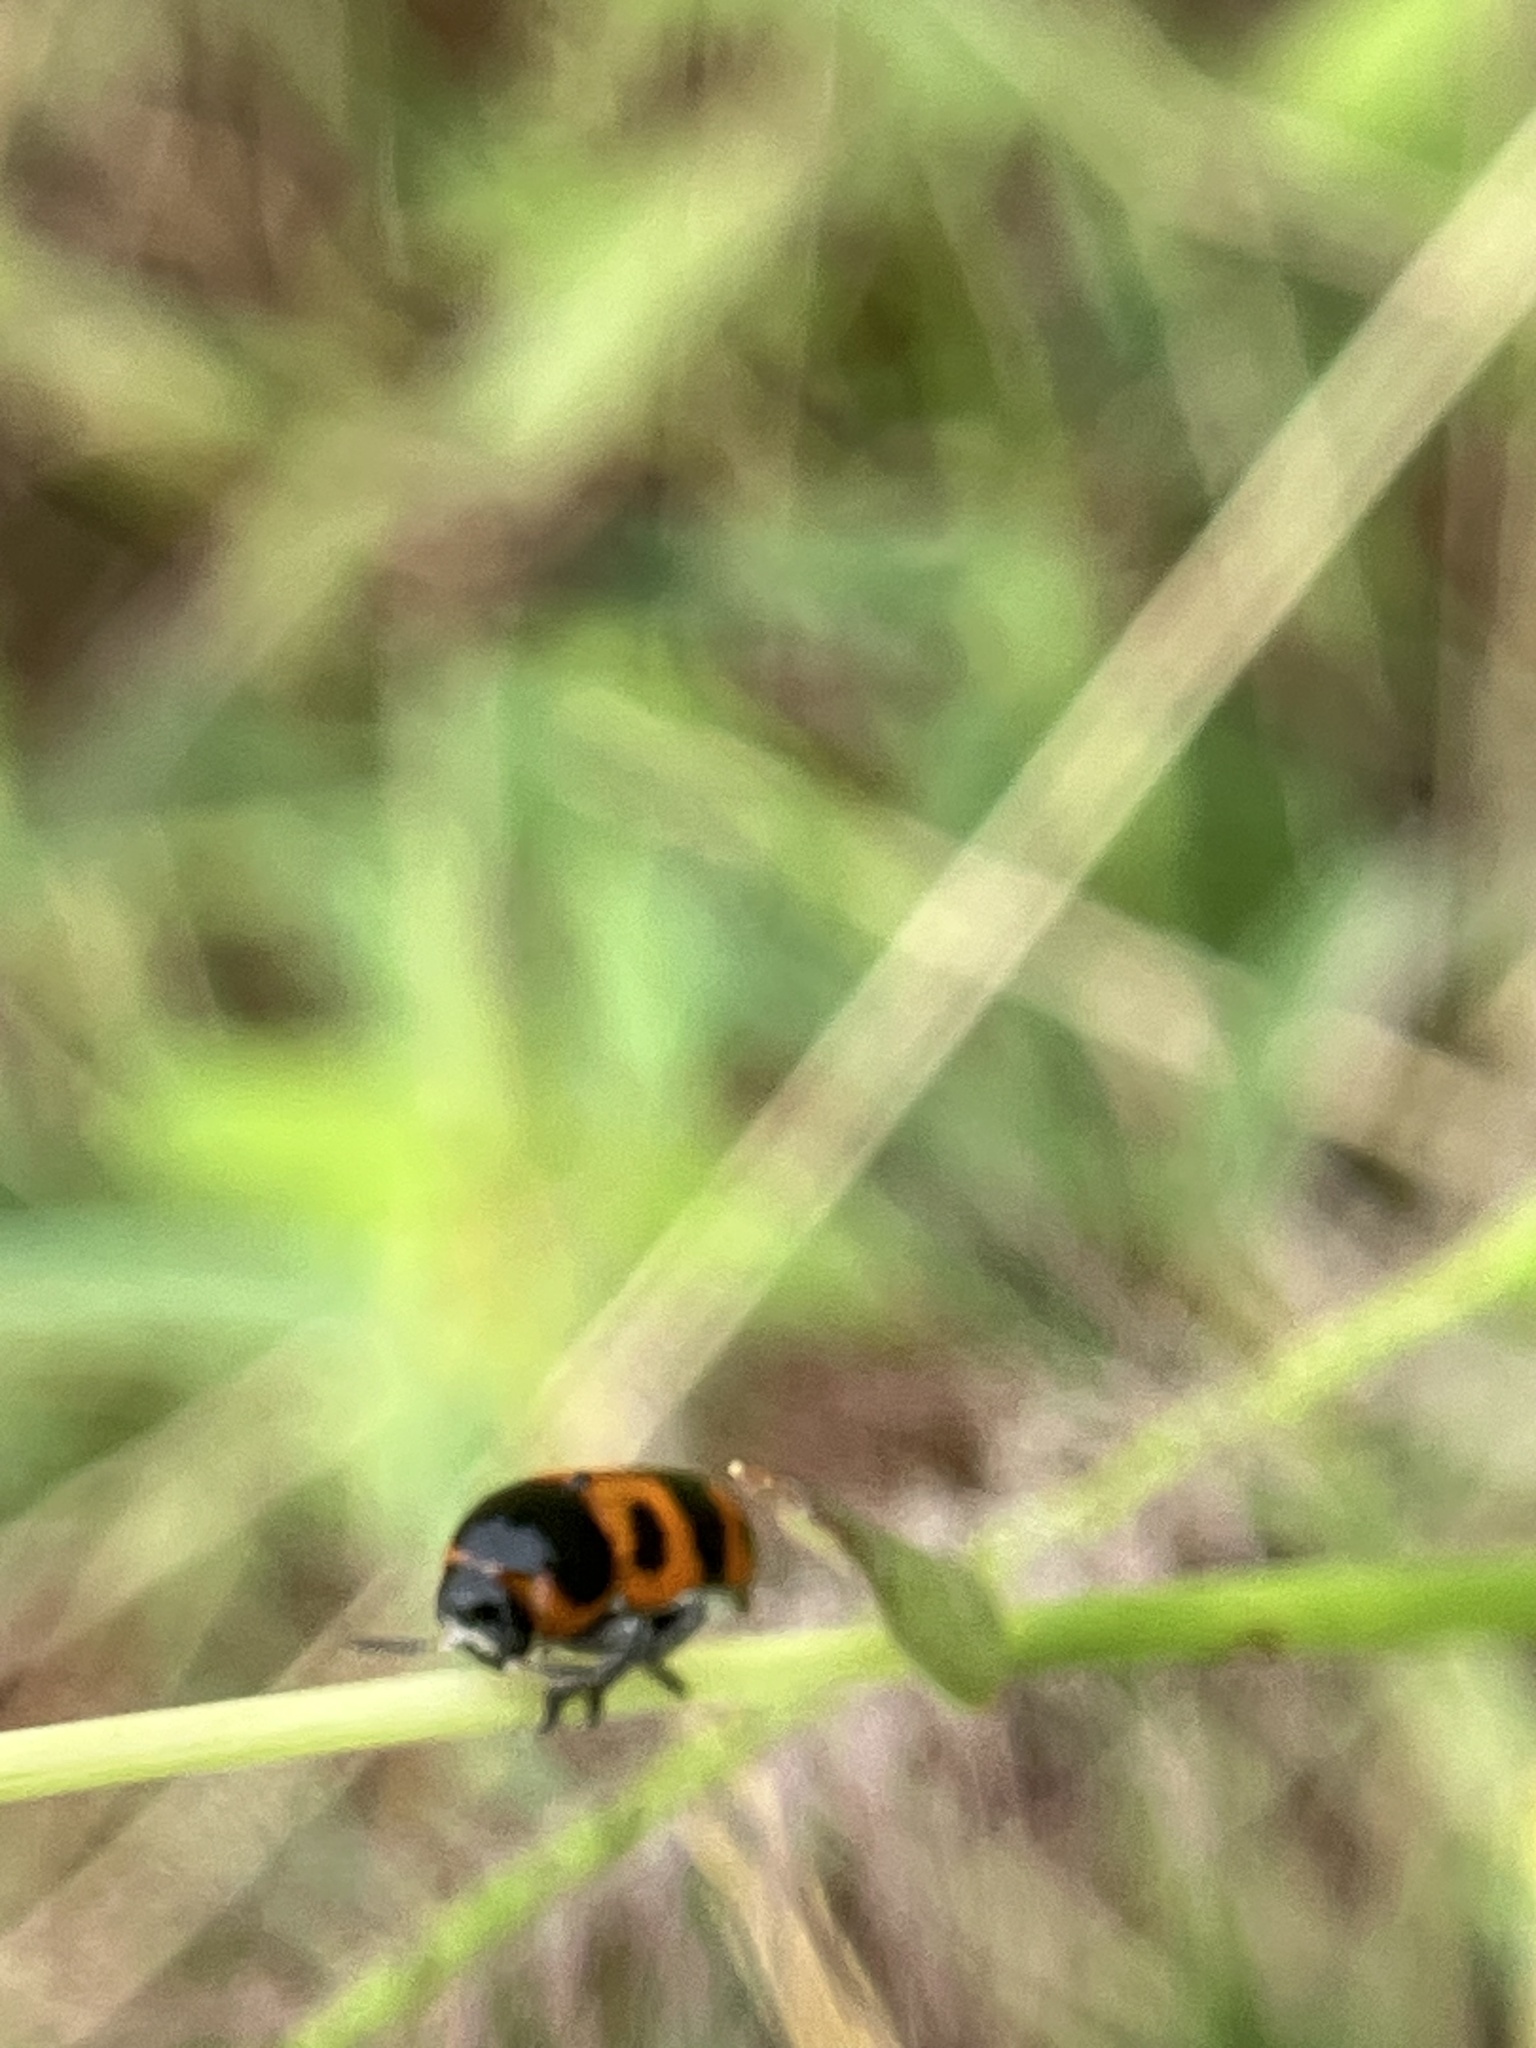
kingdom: Animalia
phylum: Arthropoda
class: Insecta
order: Coleoptera
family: Chrysomelidae
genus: Diapromorpha
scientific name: Diapromorpha
